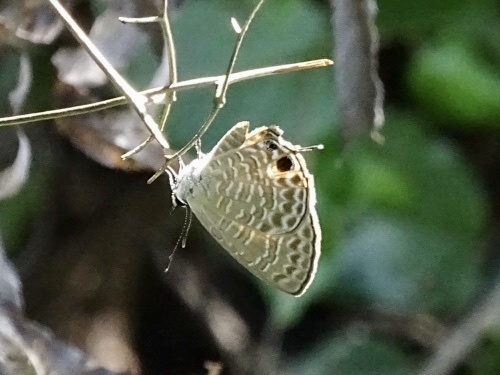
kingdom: Animalia
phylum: Arthropoda
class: Insecta
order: Lepidoptera
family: Lycaenidae
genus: Nacaduba
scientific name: Nacaduba berenice
